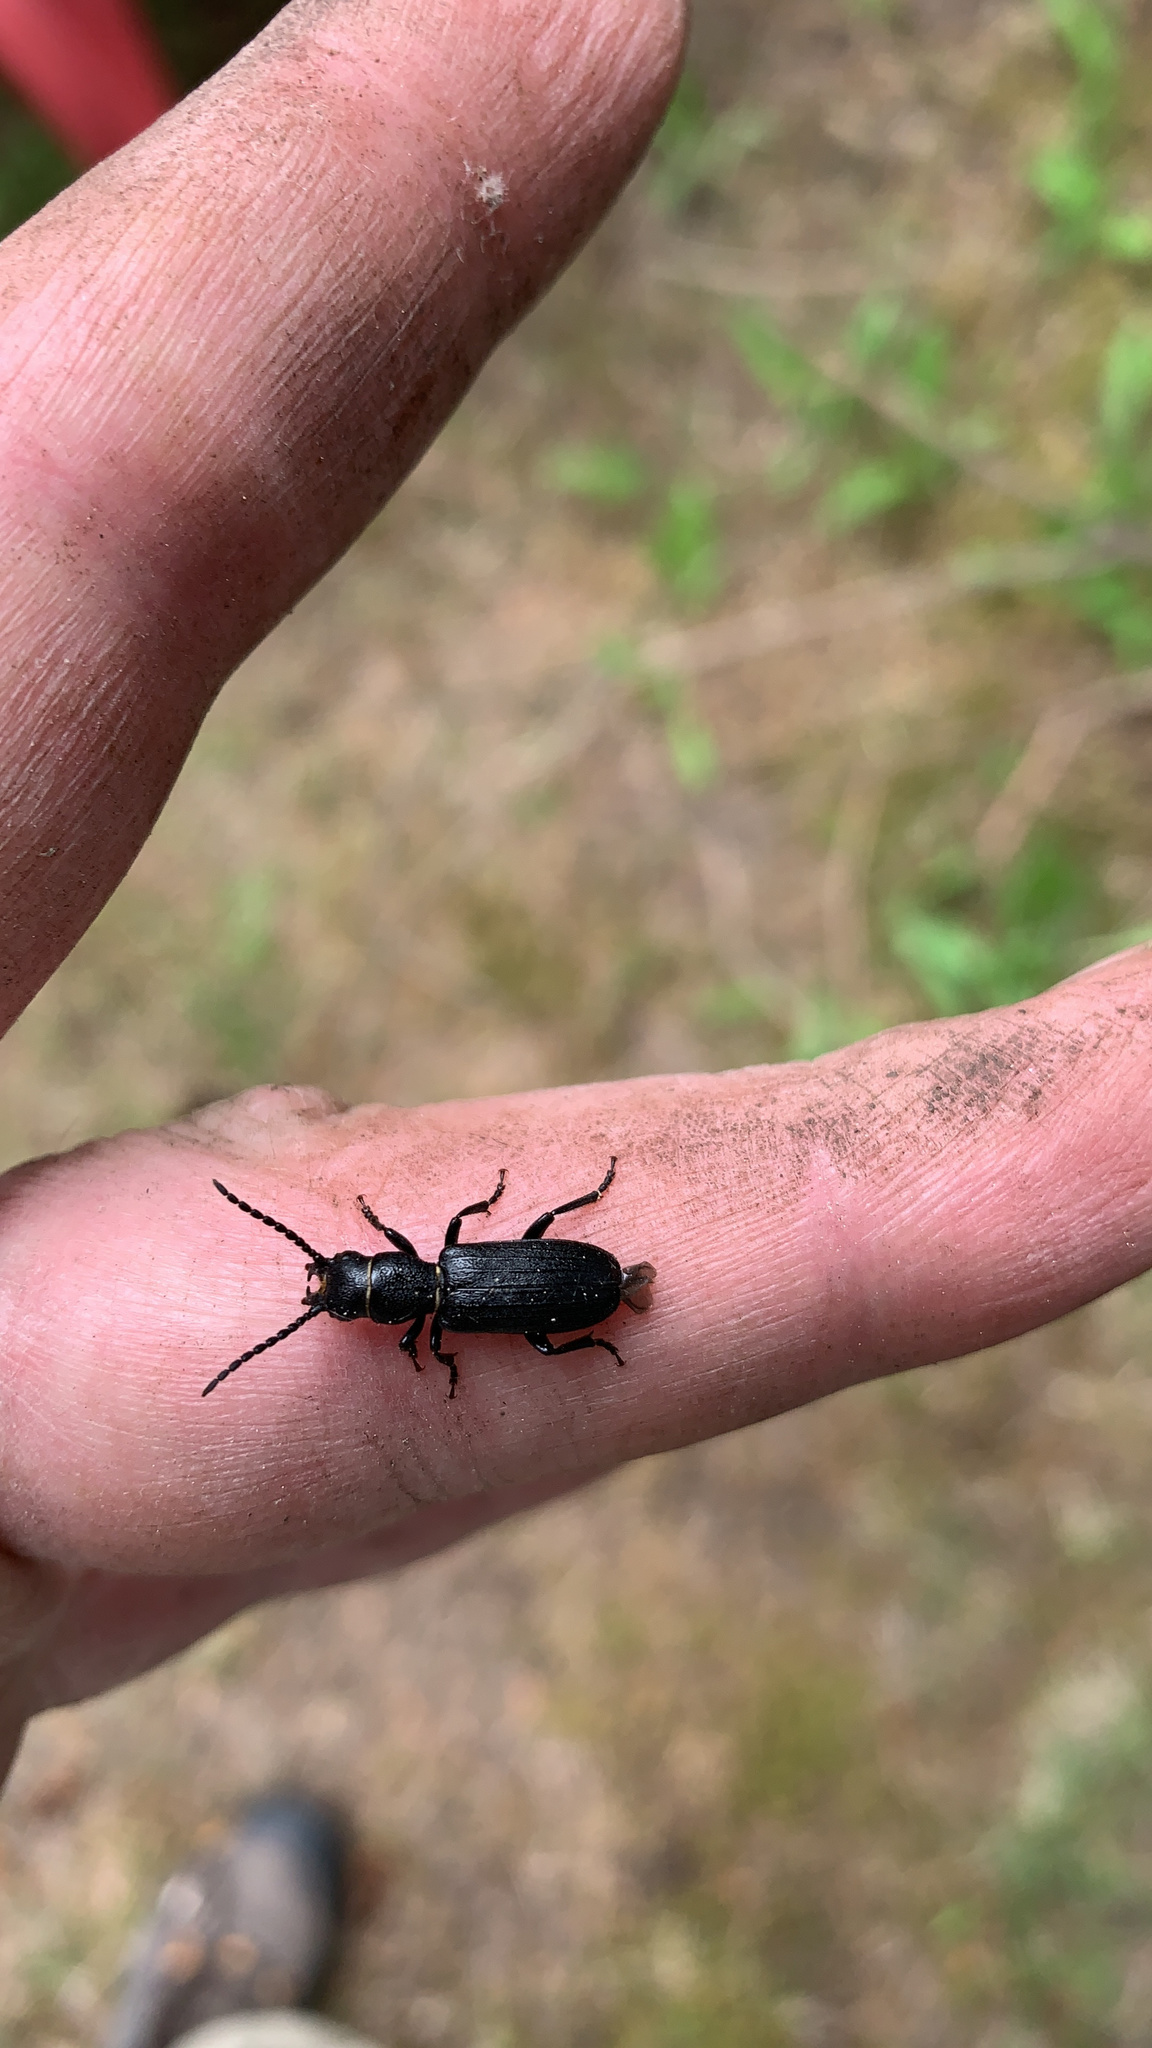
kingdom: Animalia
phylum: Arthropoda
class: Insecta
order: Coleoptera
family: Cerambycidae
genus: Neospondylis
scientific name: Neospondylis upiformis
